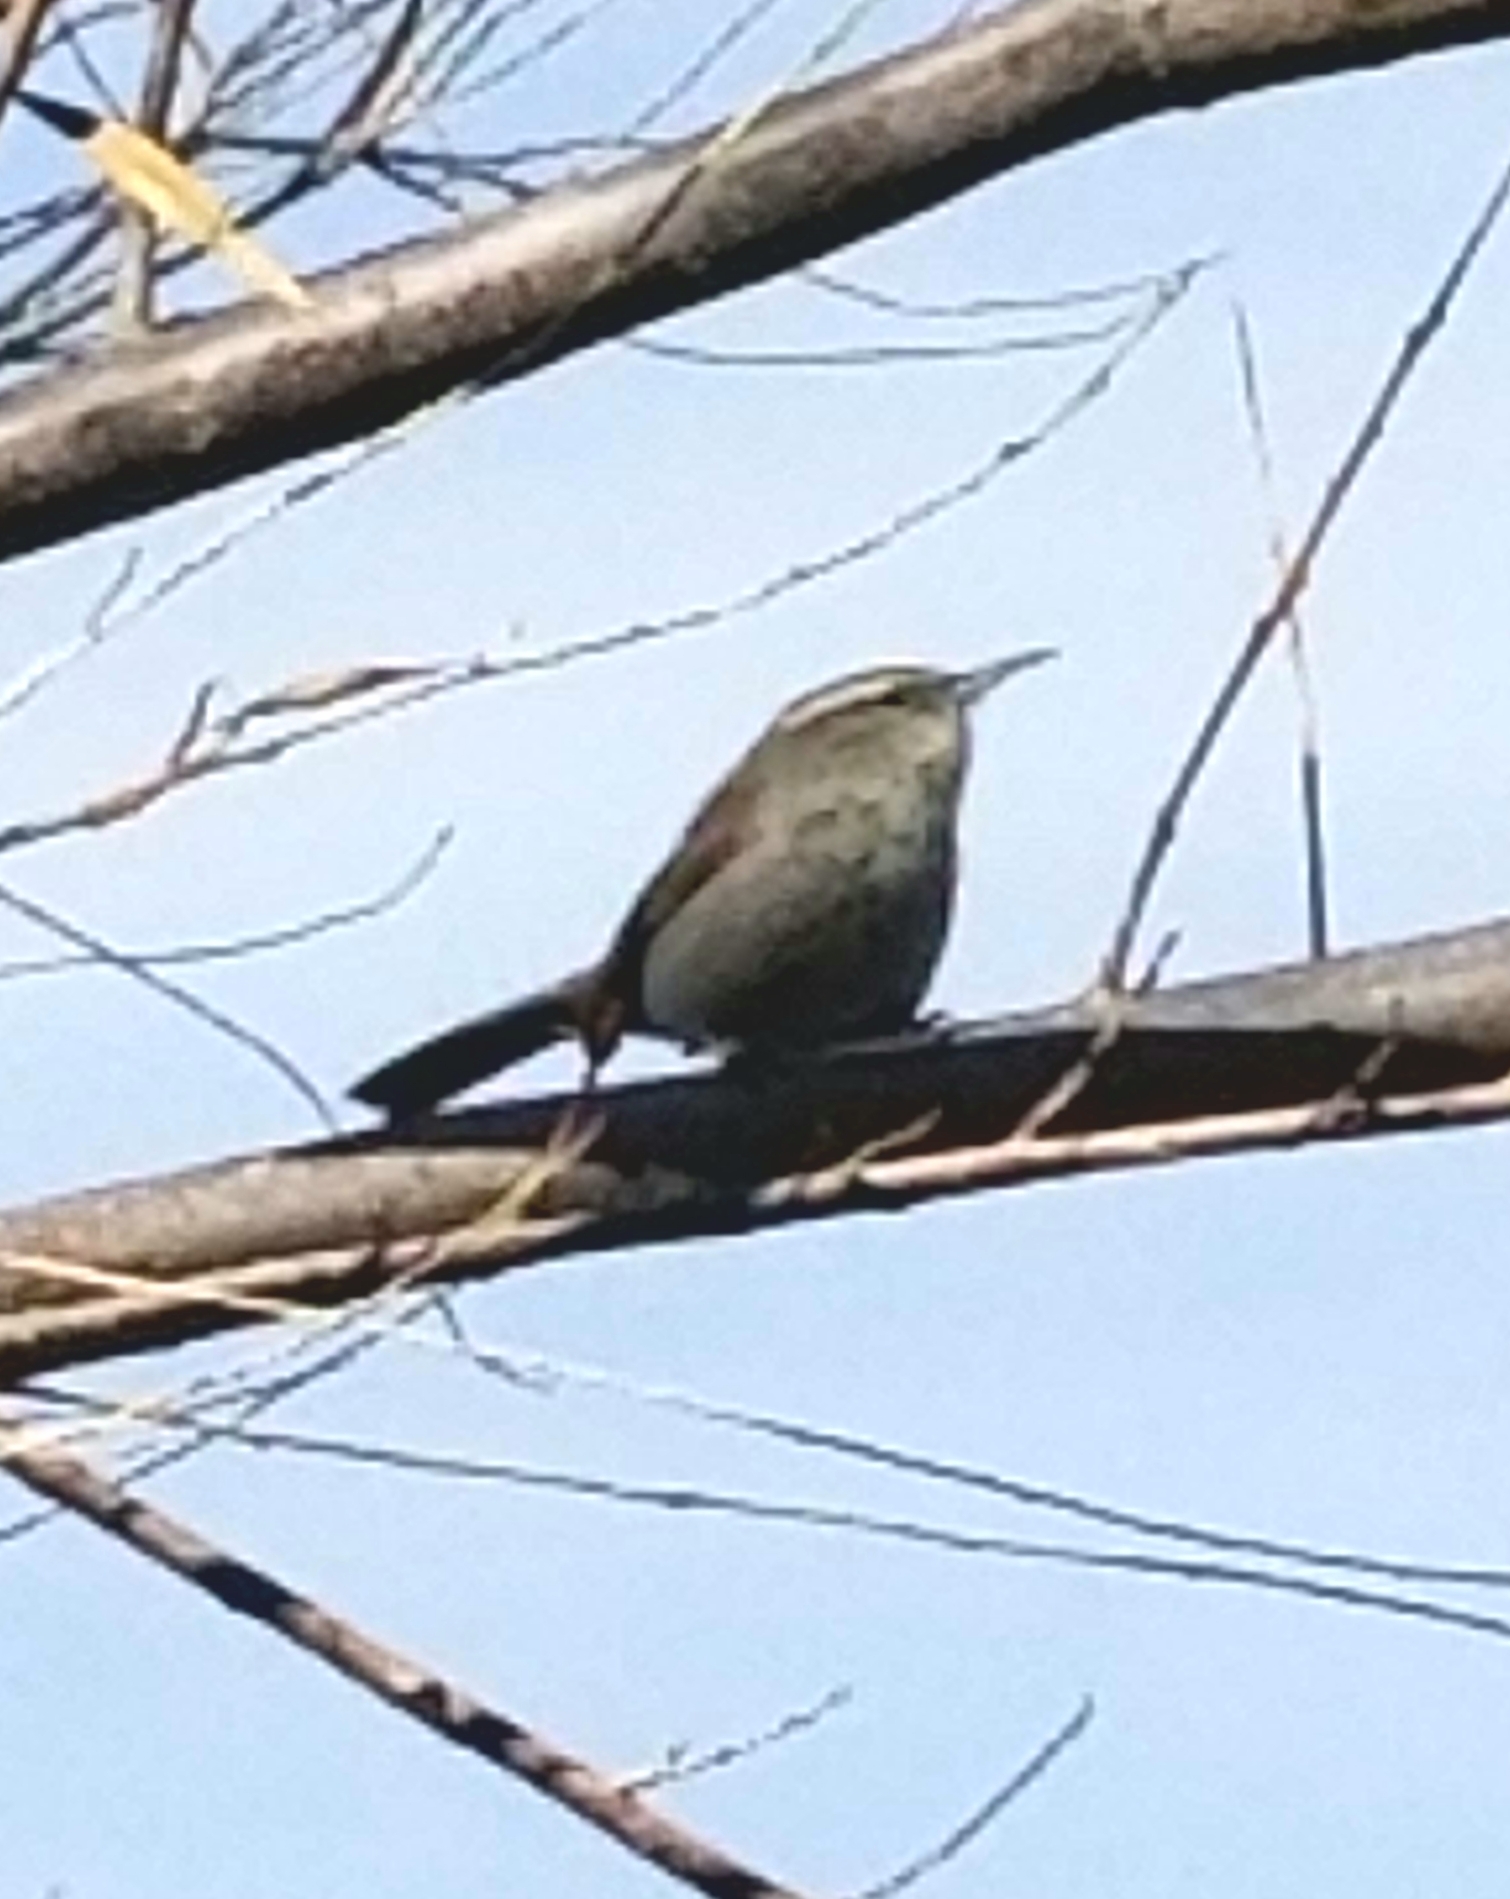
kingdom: Animalia
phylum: Chordata
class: Aves
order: Passeriformes
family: Troglodytidae
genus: Thryomanes
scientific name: Thryomanes bewickii
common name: Bewick's wren
